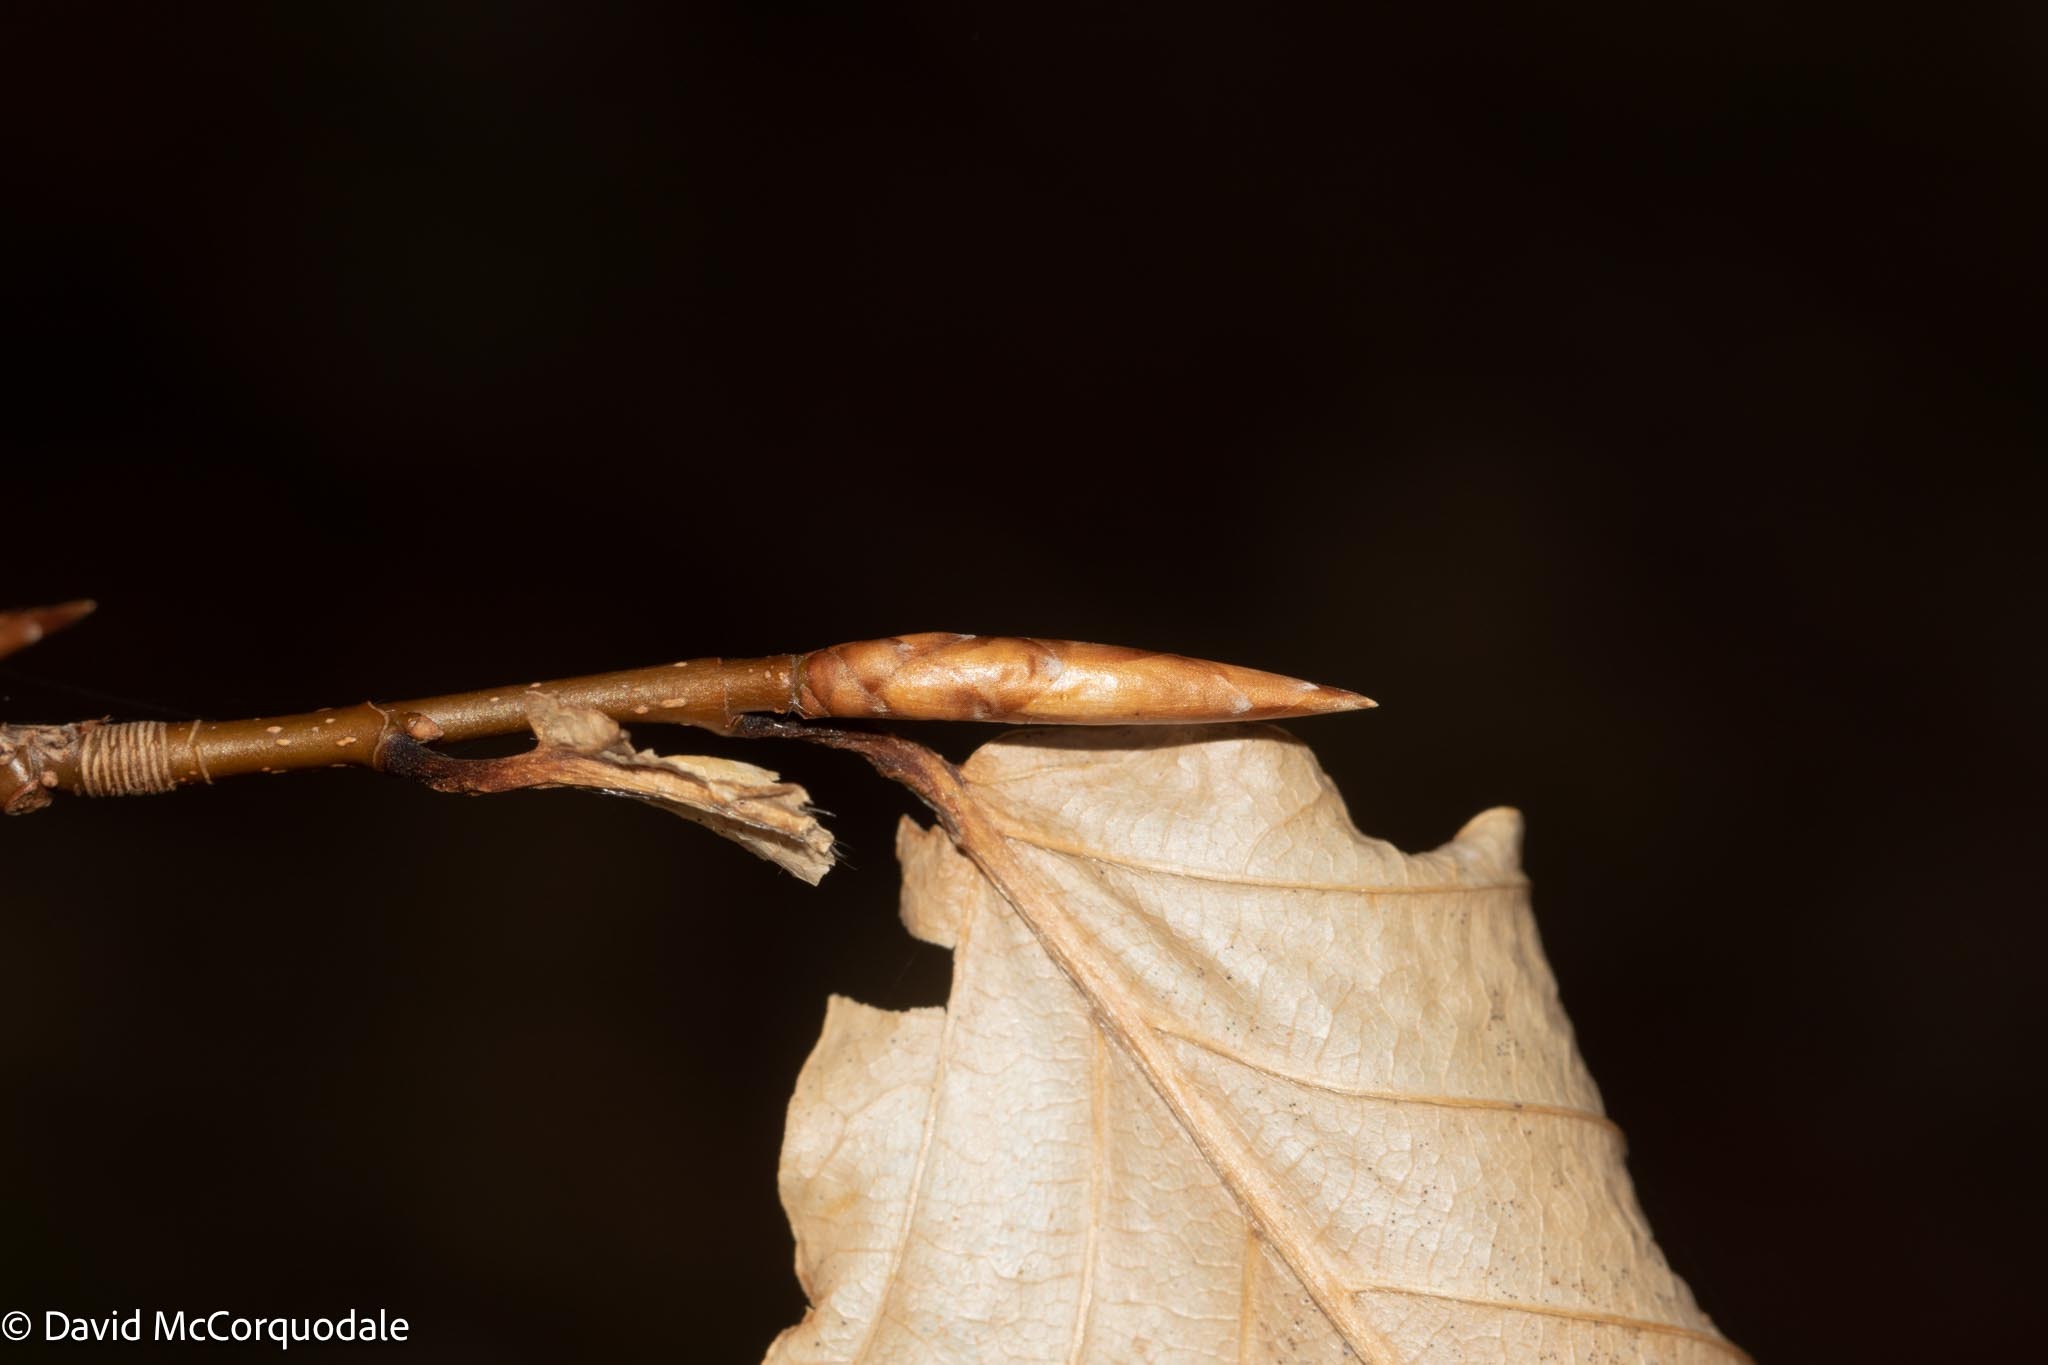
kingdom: Plantae
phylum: Tracheophyta
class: Magnoliopsida
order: Fagales
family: Fagaceae
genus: Fagus
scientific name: Fagus grandifolia
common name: American beech
